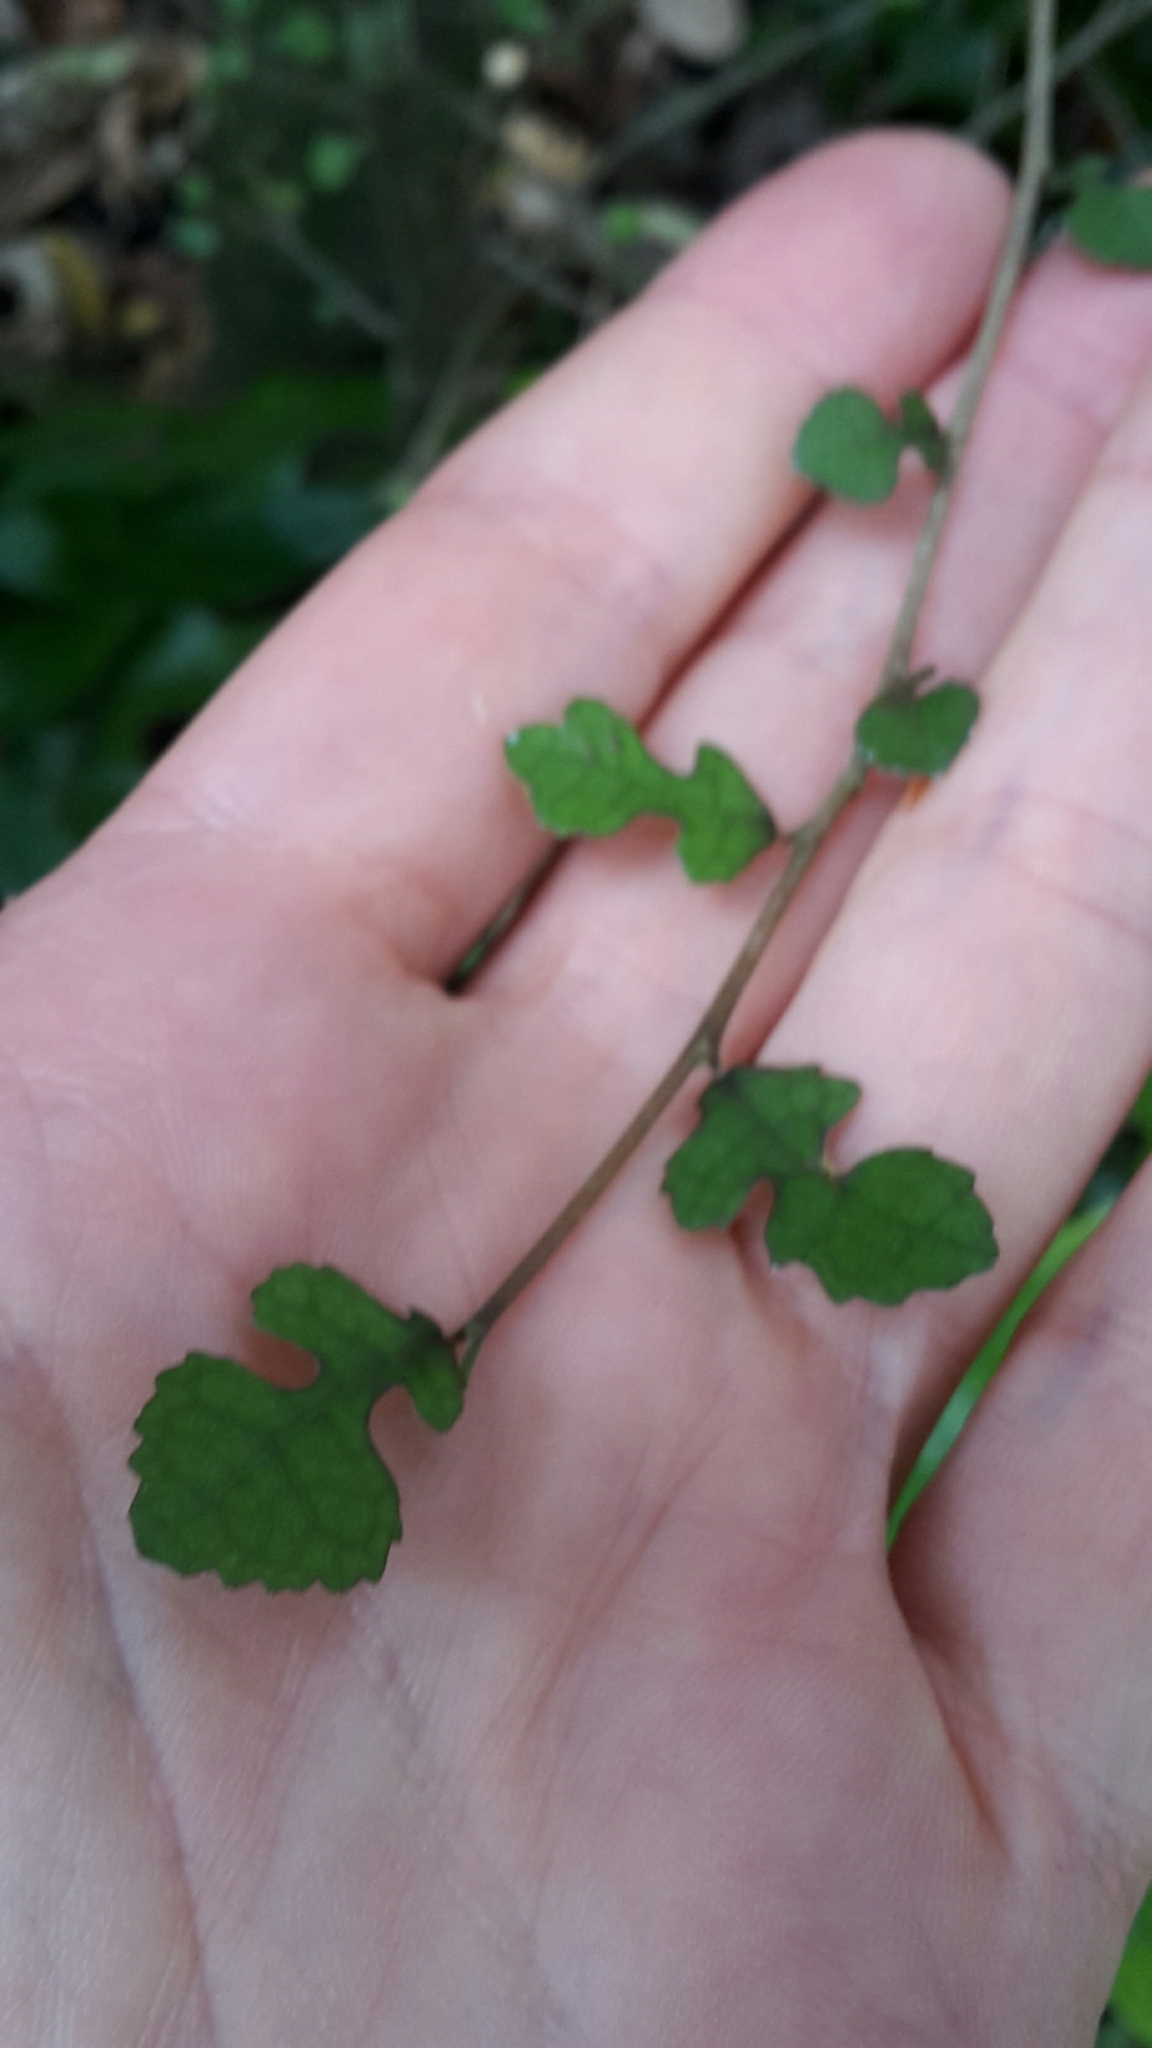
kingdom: Plantae
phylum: Tracheophyta
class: Magnoliopsida
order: Rosales
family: Moraceae
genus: Paratrophis
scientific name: Paratrophis microphylla
